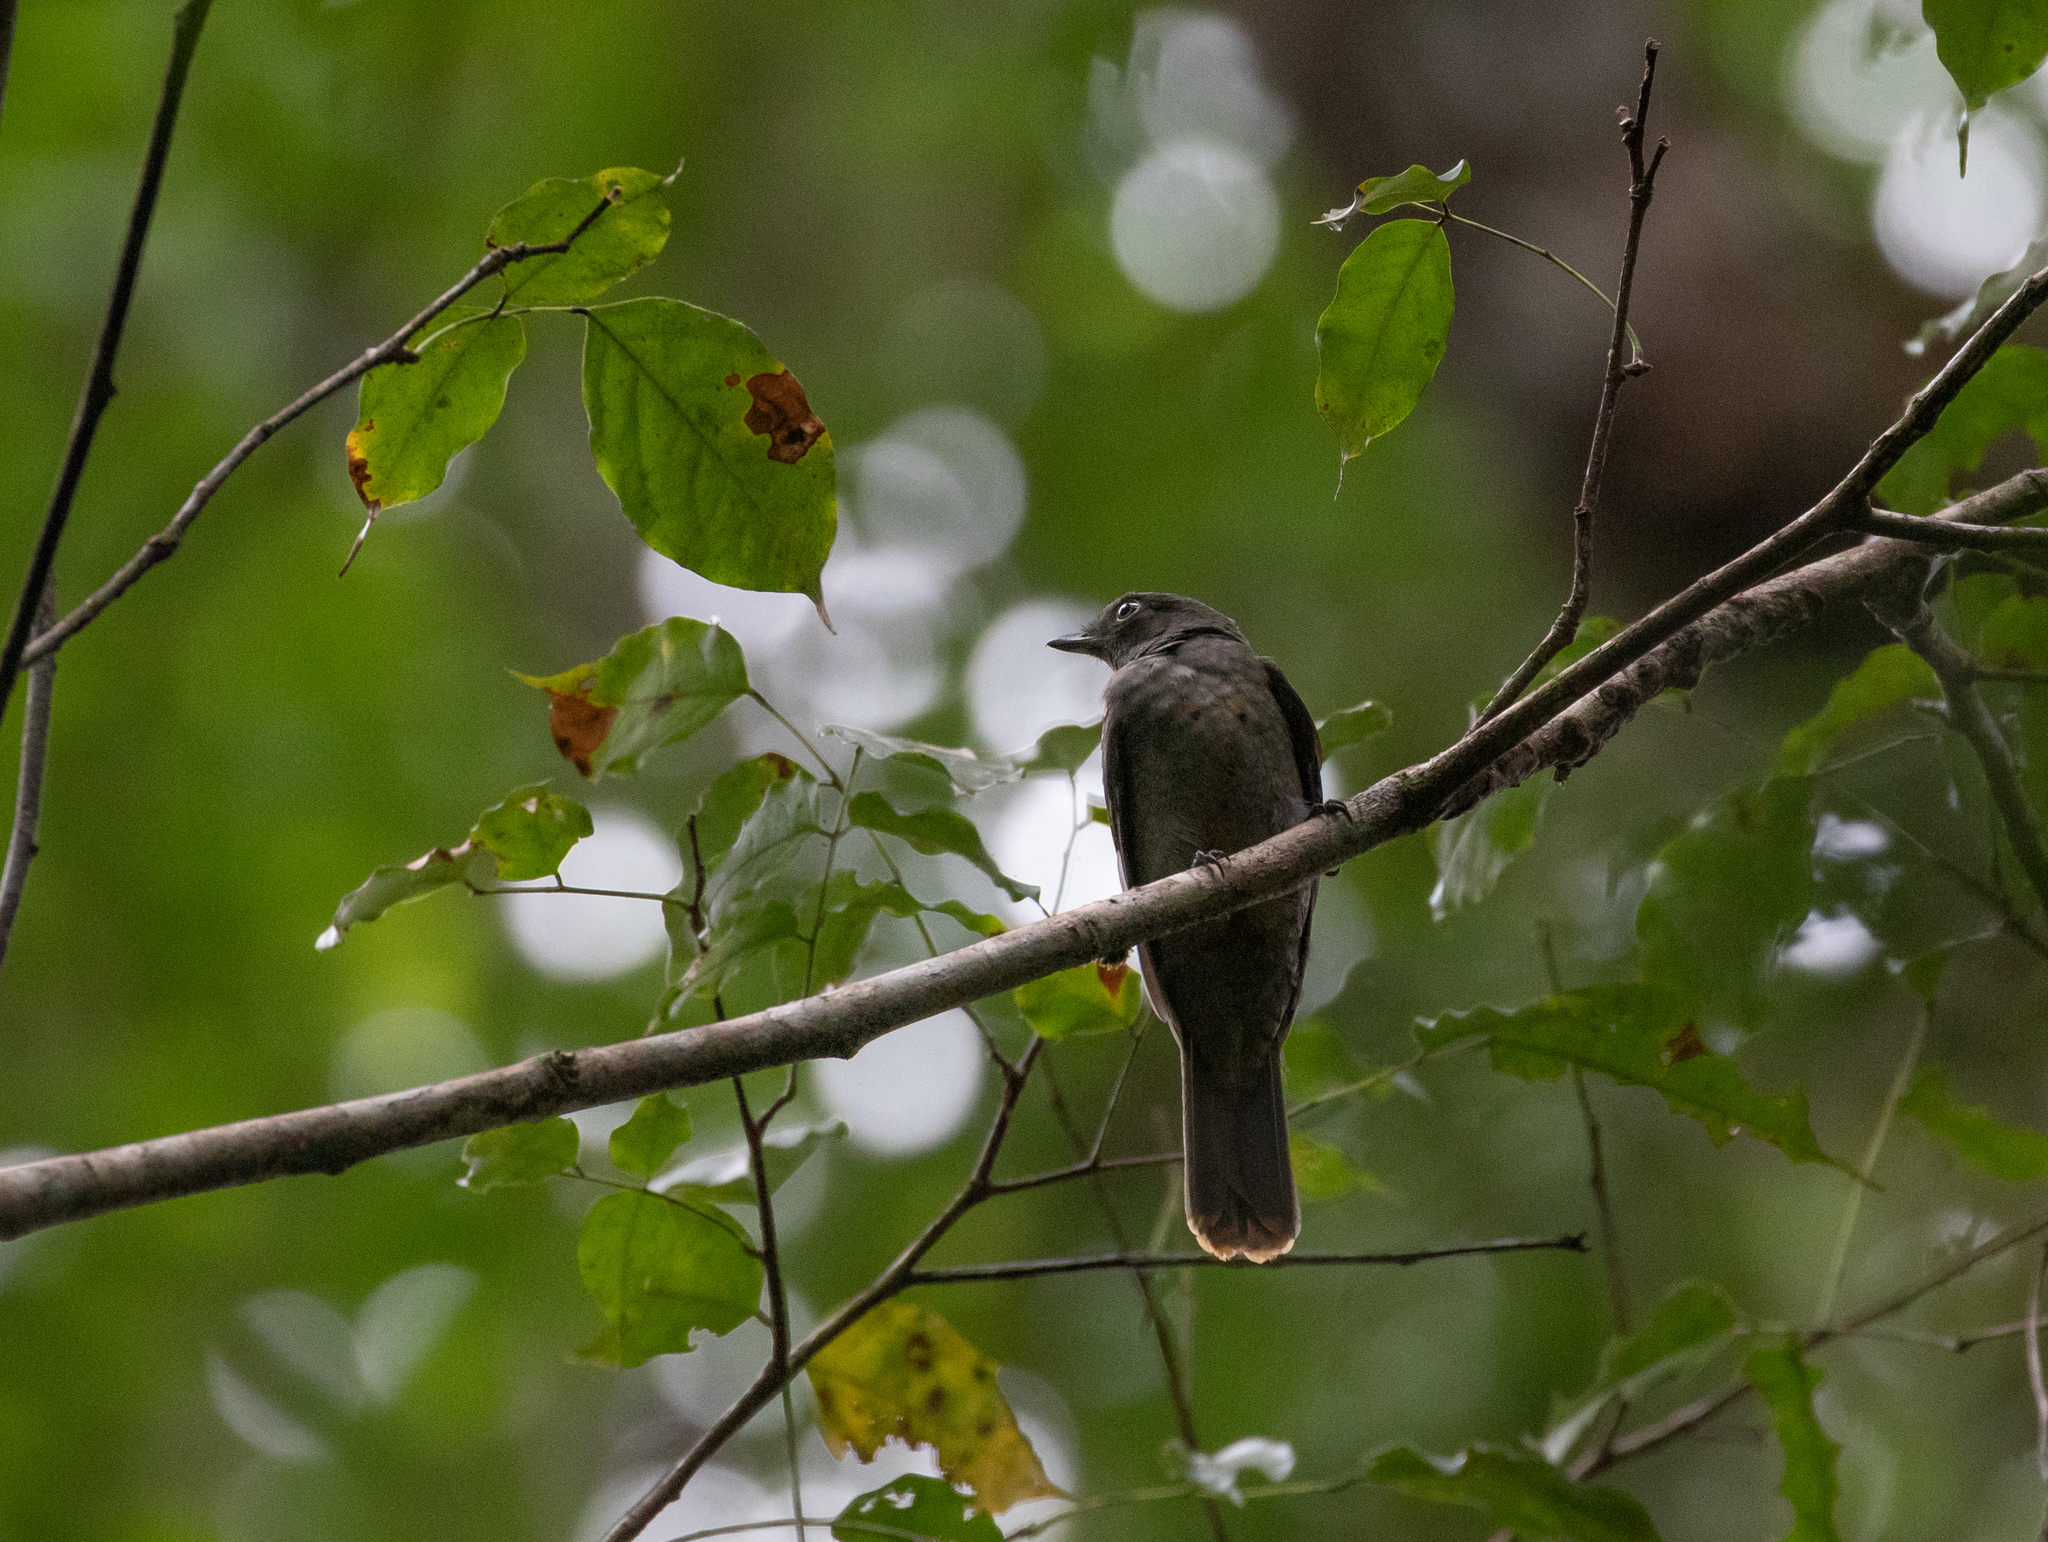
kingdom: Animalia
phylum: Chordata
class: Aves
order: Passeriformes
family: Cotingidae
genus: Laniocera
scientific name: Laniocera hypopyrra
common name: Cinereous mourner
